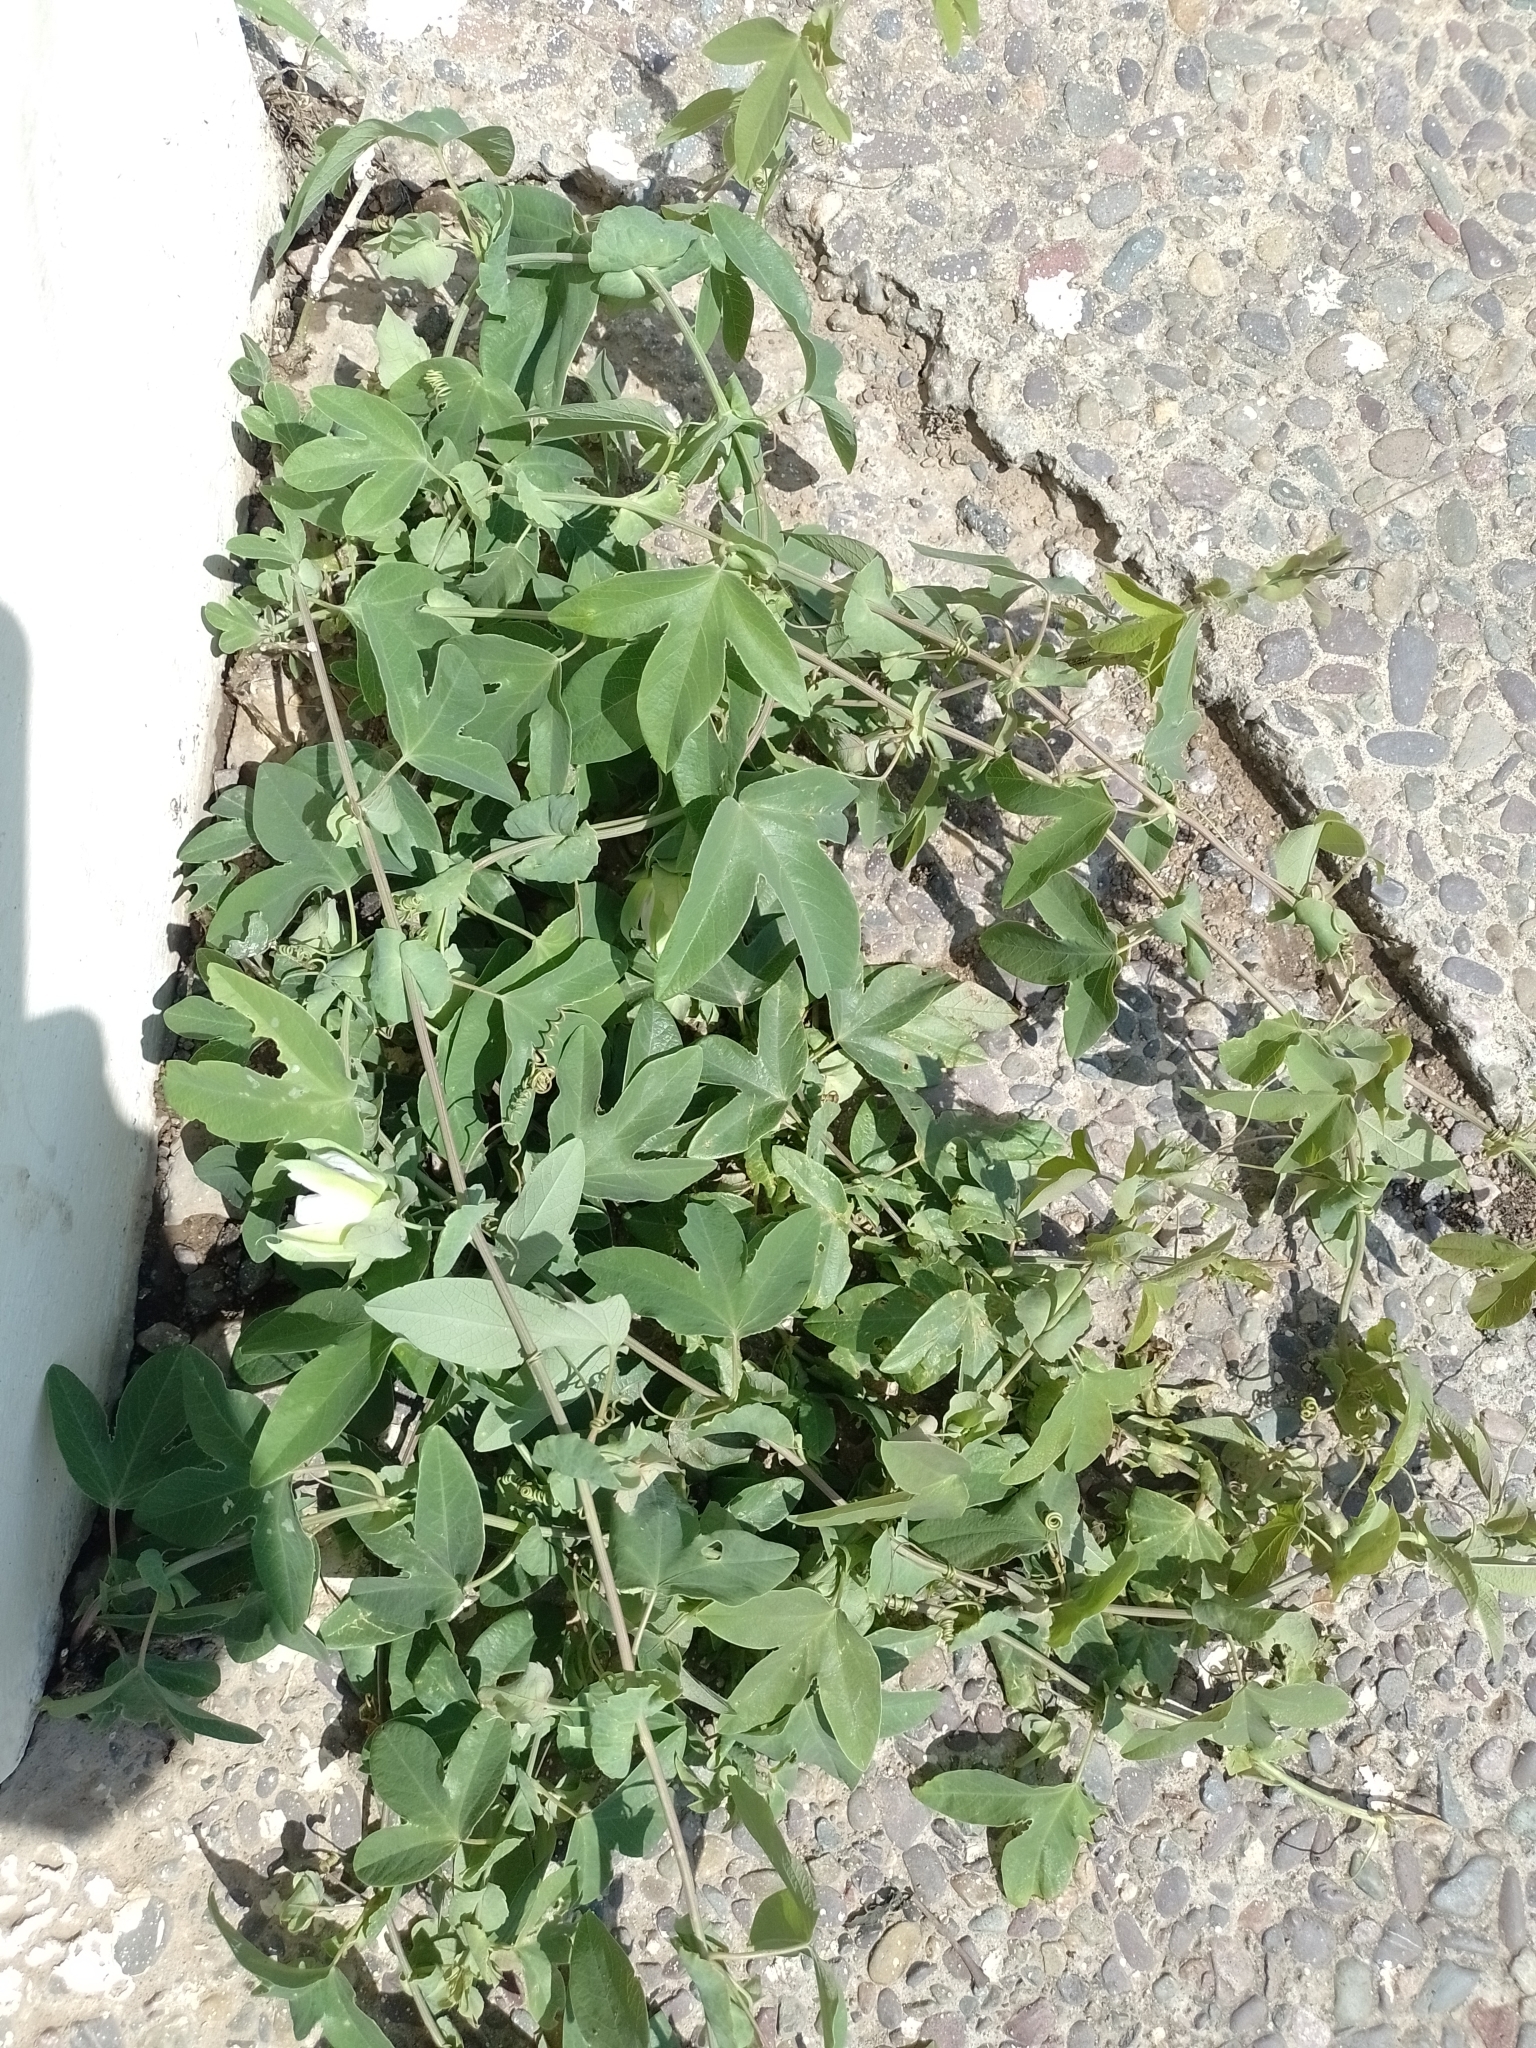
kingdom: Plantae
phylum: Tracheophyta
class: Magnoliopsida
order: Malpighiales
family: Passifloraceae
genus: Passiflora
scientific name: Passiflora tucumanensis
